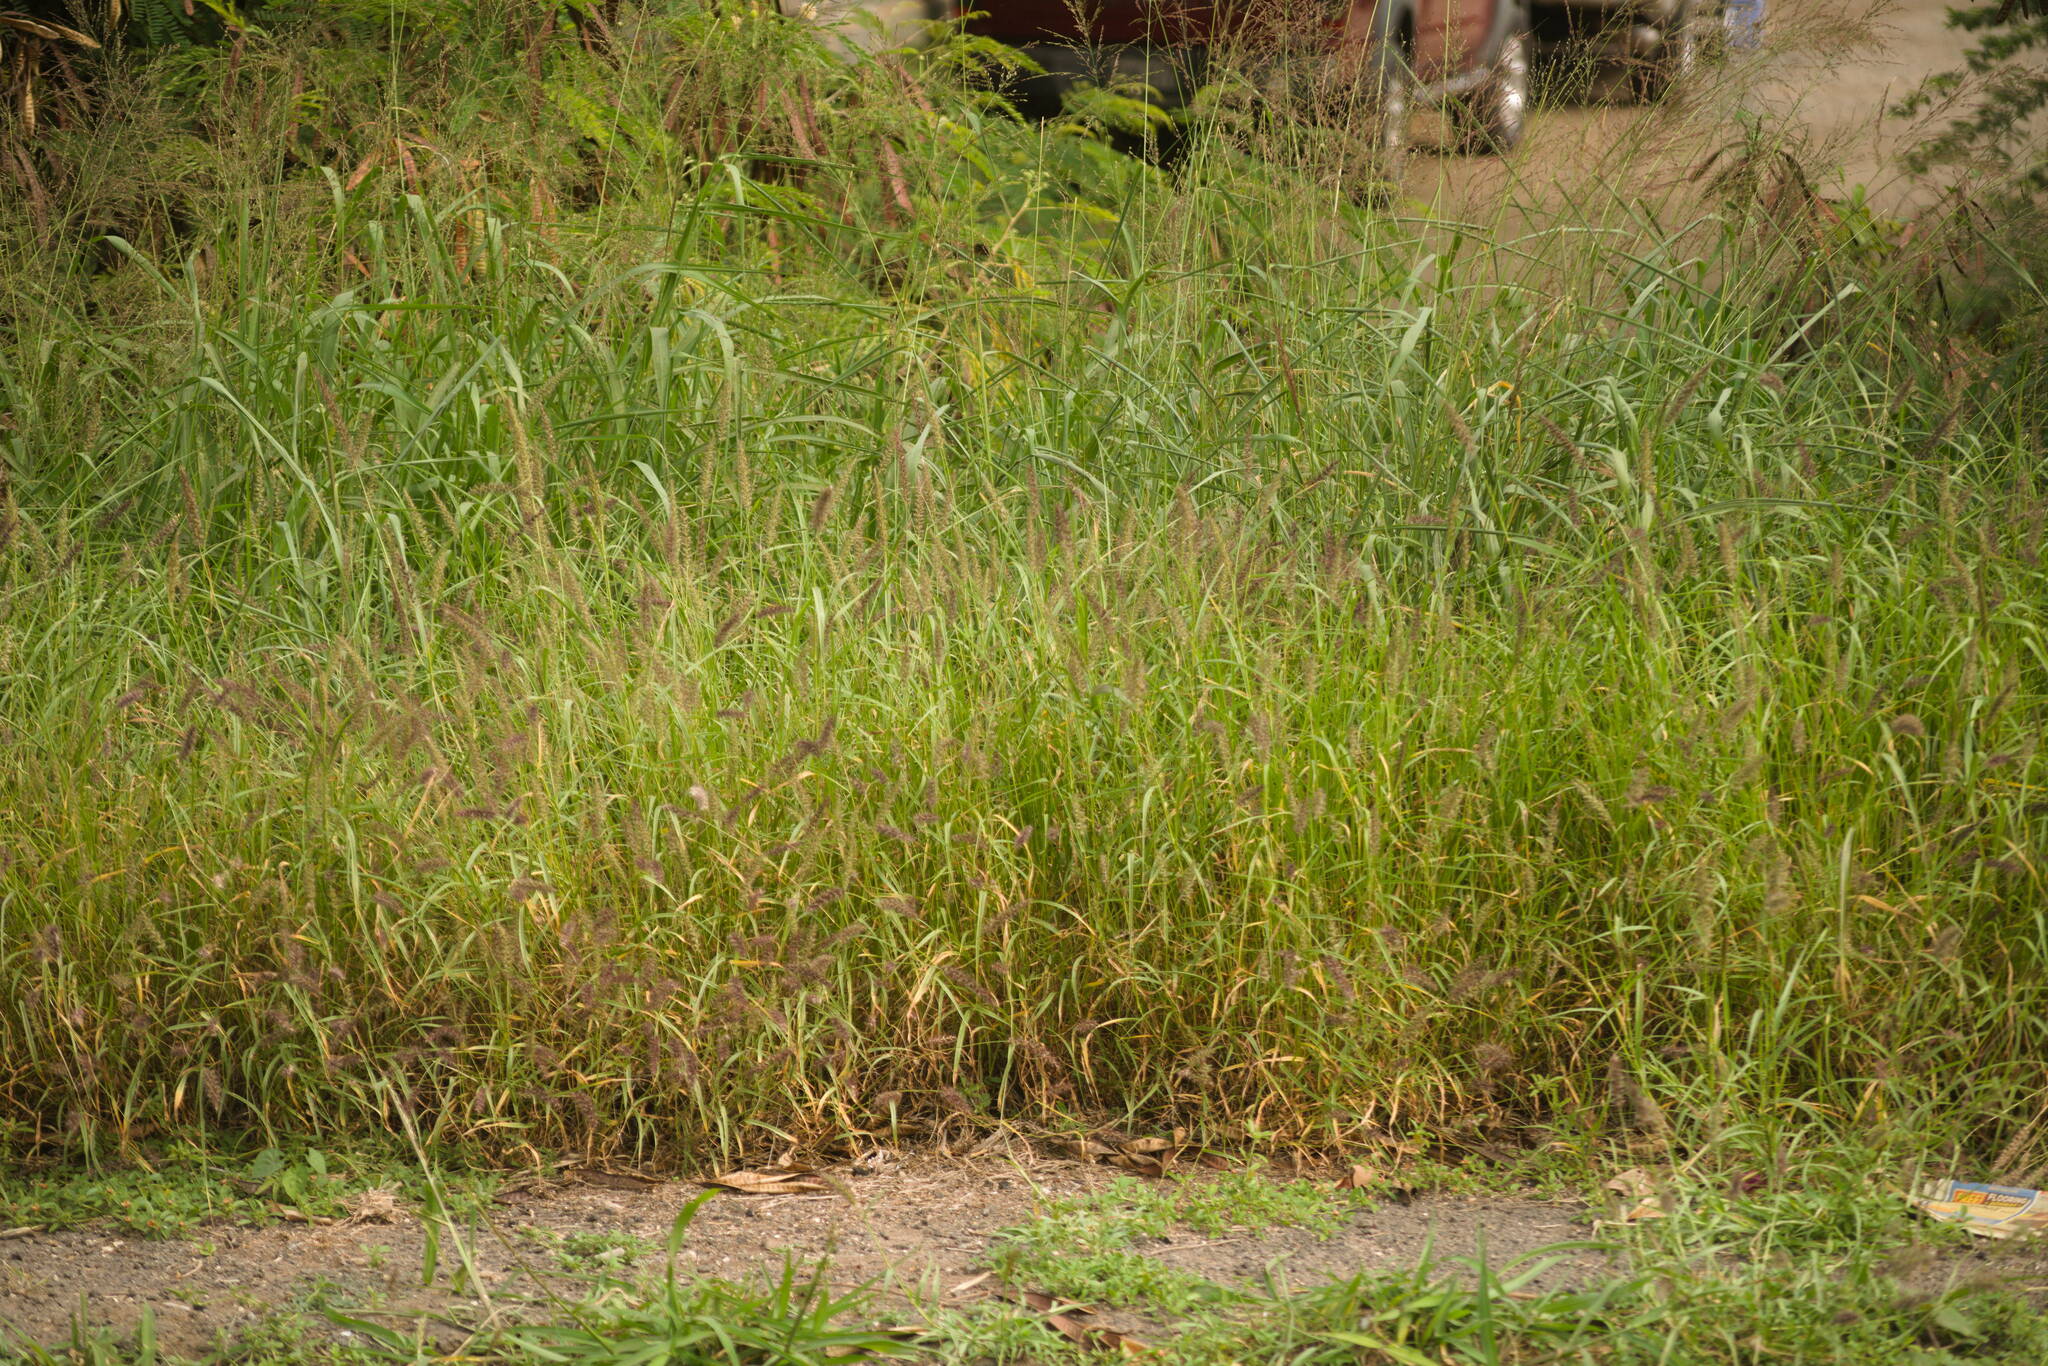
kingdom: Plantae
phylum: Tracheophyta
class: Liliopsida
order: Poales
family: Poaceae
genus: Cenchrus
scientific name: Cenchrus ciliaris
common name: Buffelgrass
